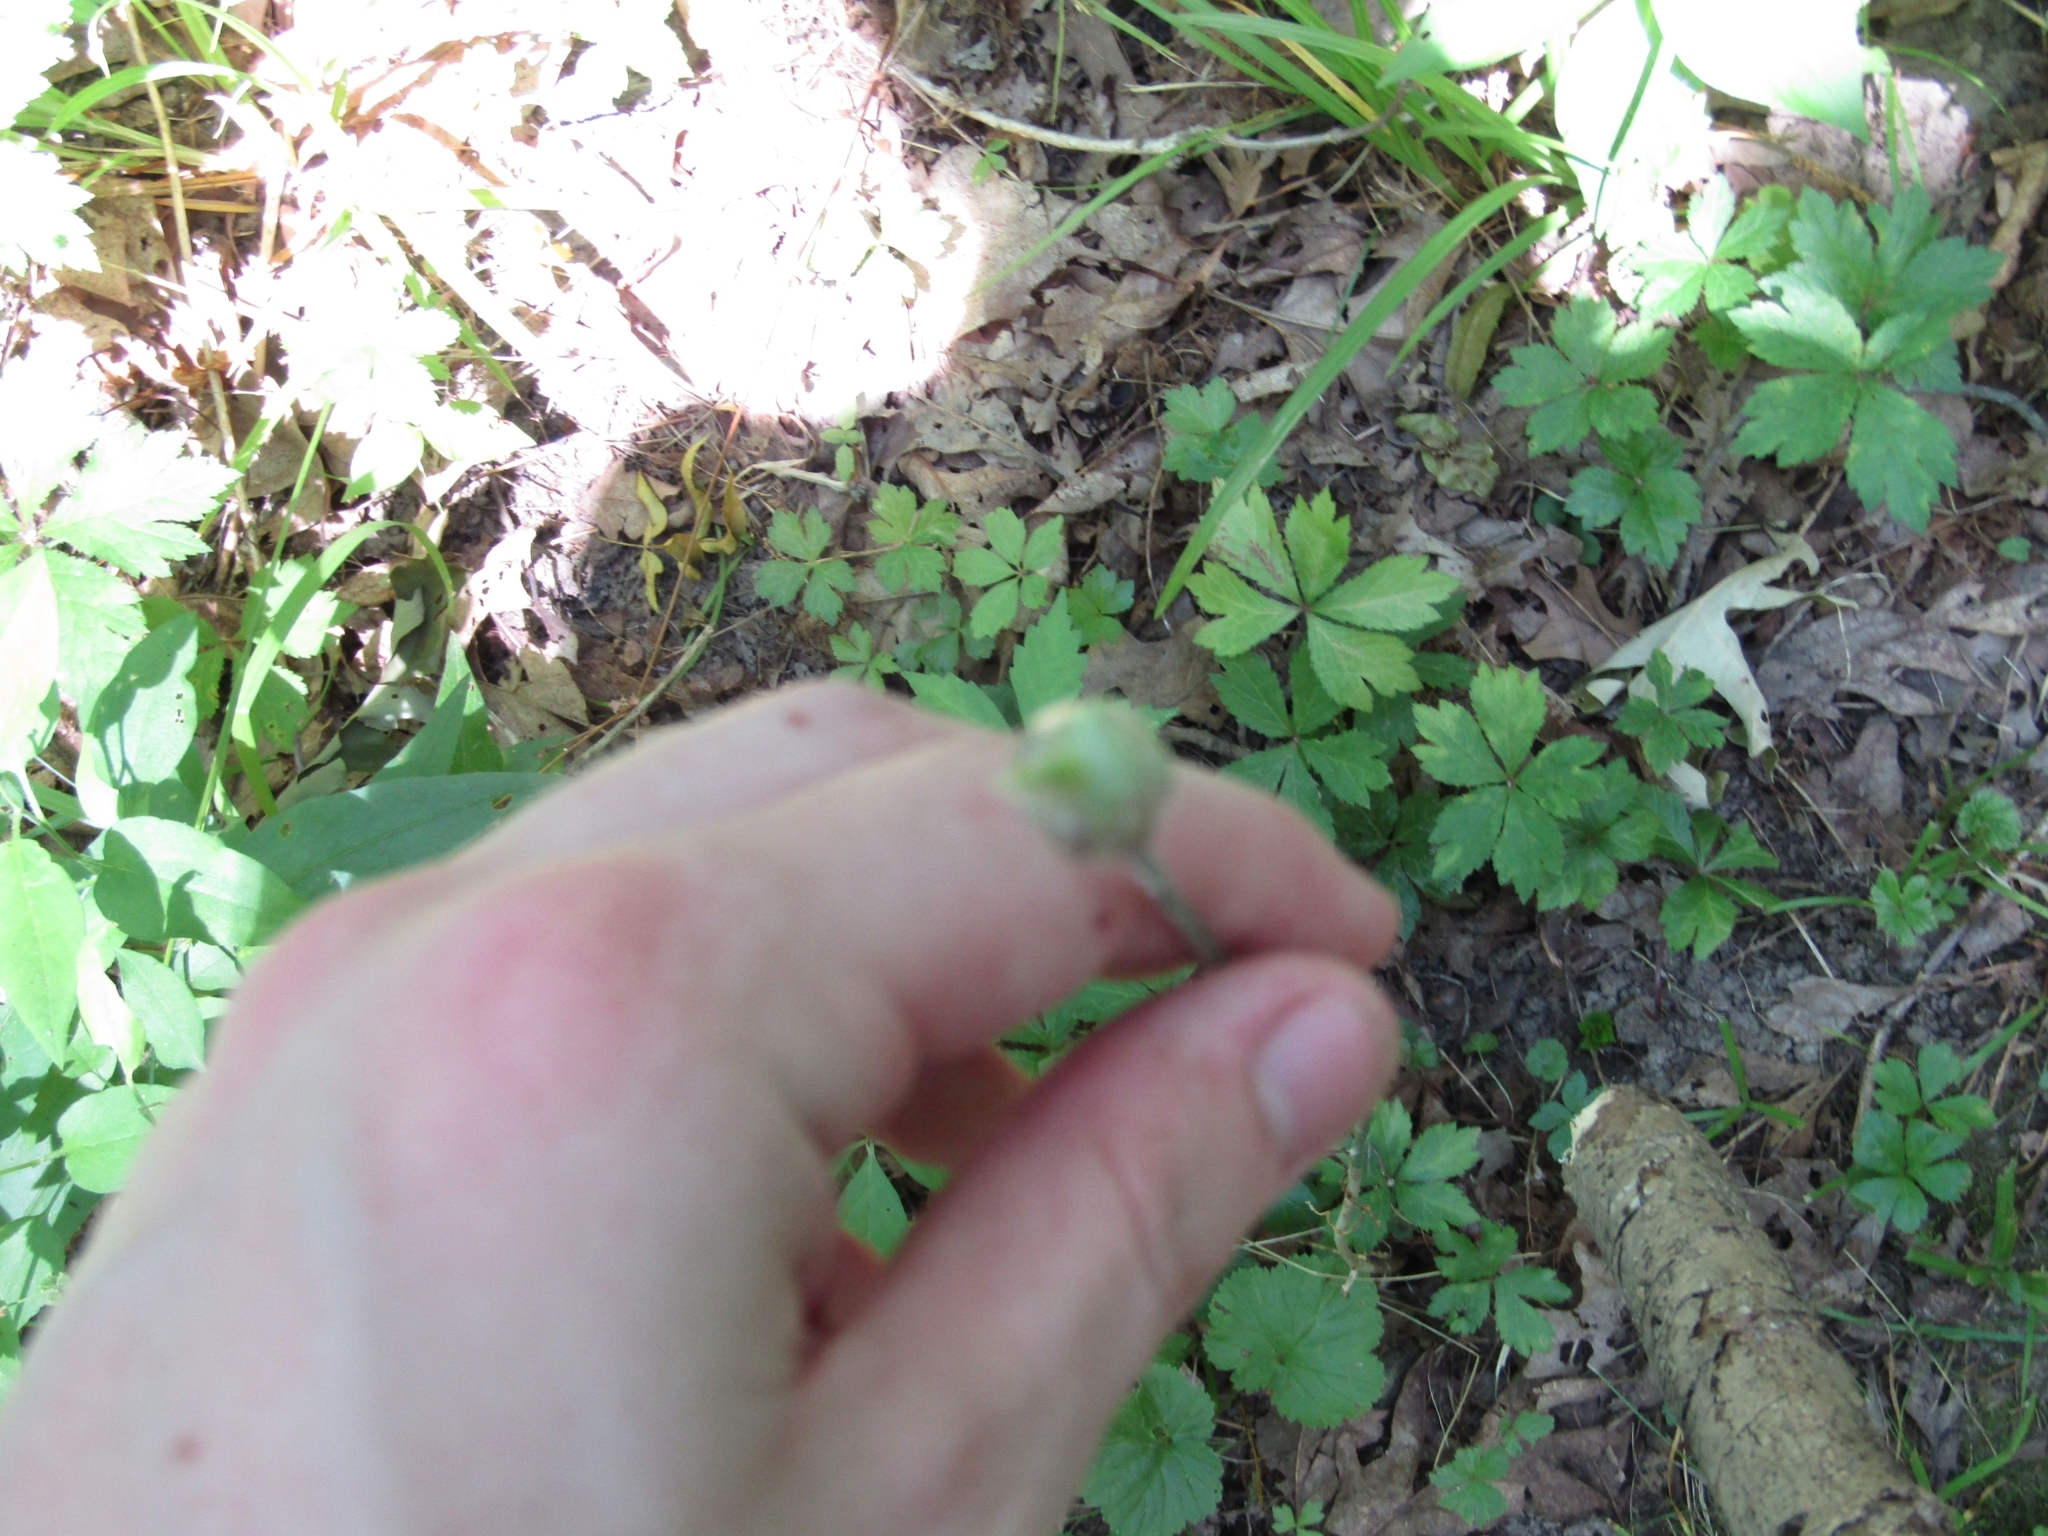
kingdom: Plantae
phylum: Tracheophyta
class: Liliopsida
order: Asparagales
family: Amaryllidaceae
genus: Allium
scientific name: Allium canadense
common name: Meadow garlic
